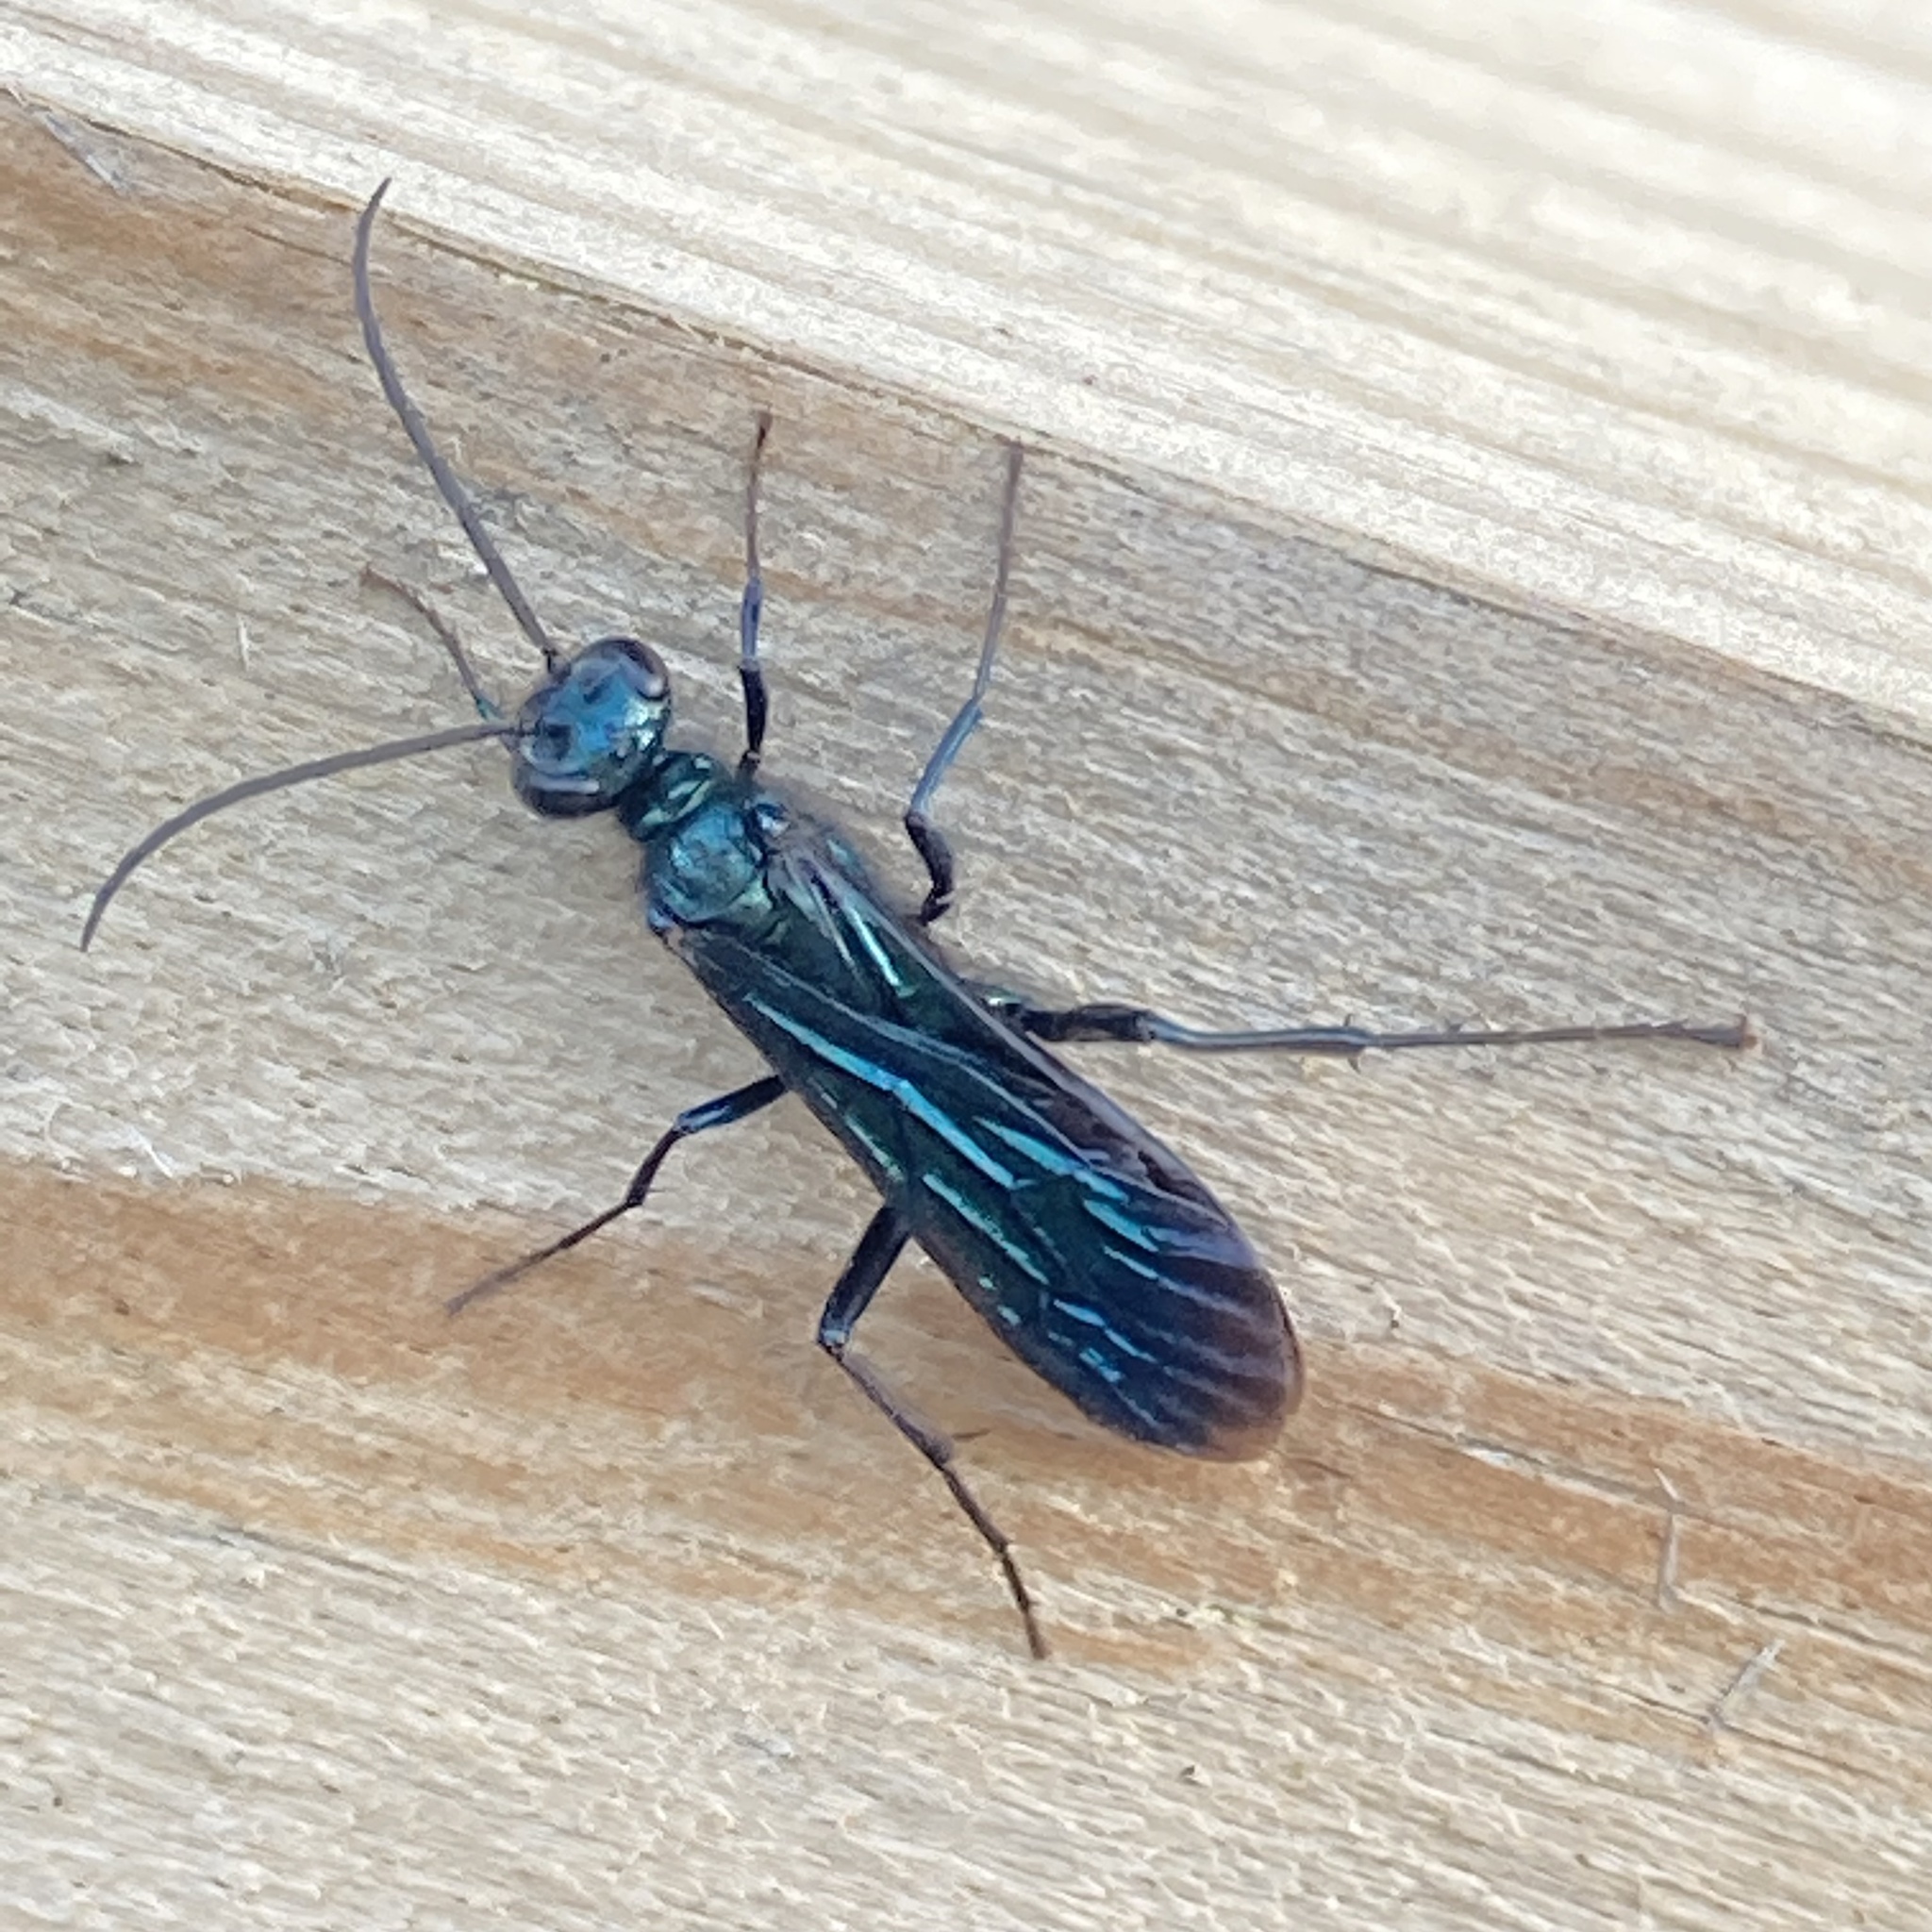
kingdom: Animalia
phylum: Arthropoda
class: Insecta
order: Hymenoptera
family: Sphecidae
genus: Chalybion
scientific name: Chalybion californicum
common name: Mud dauber
